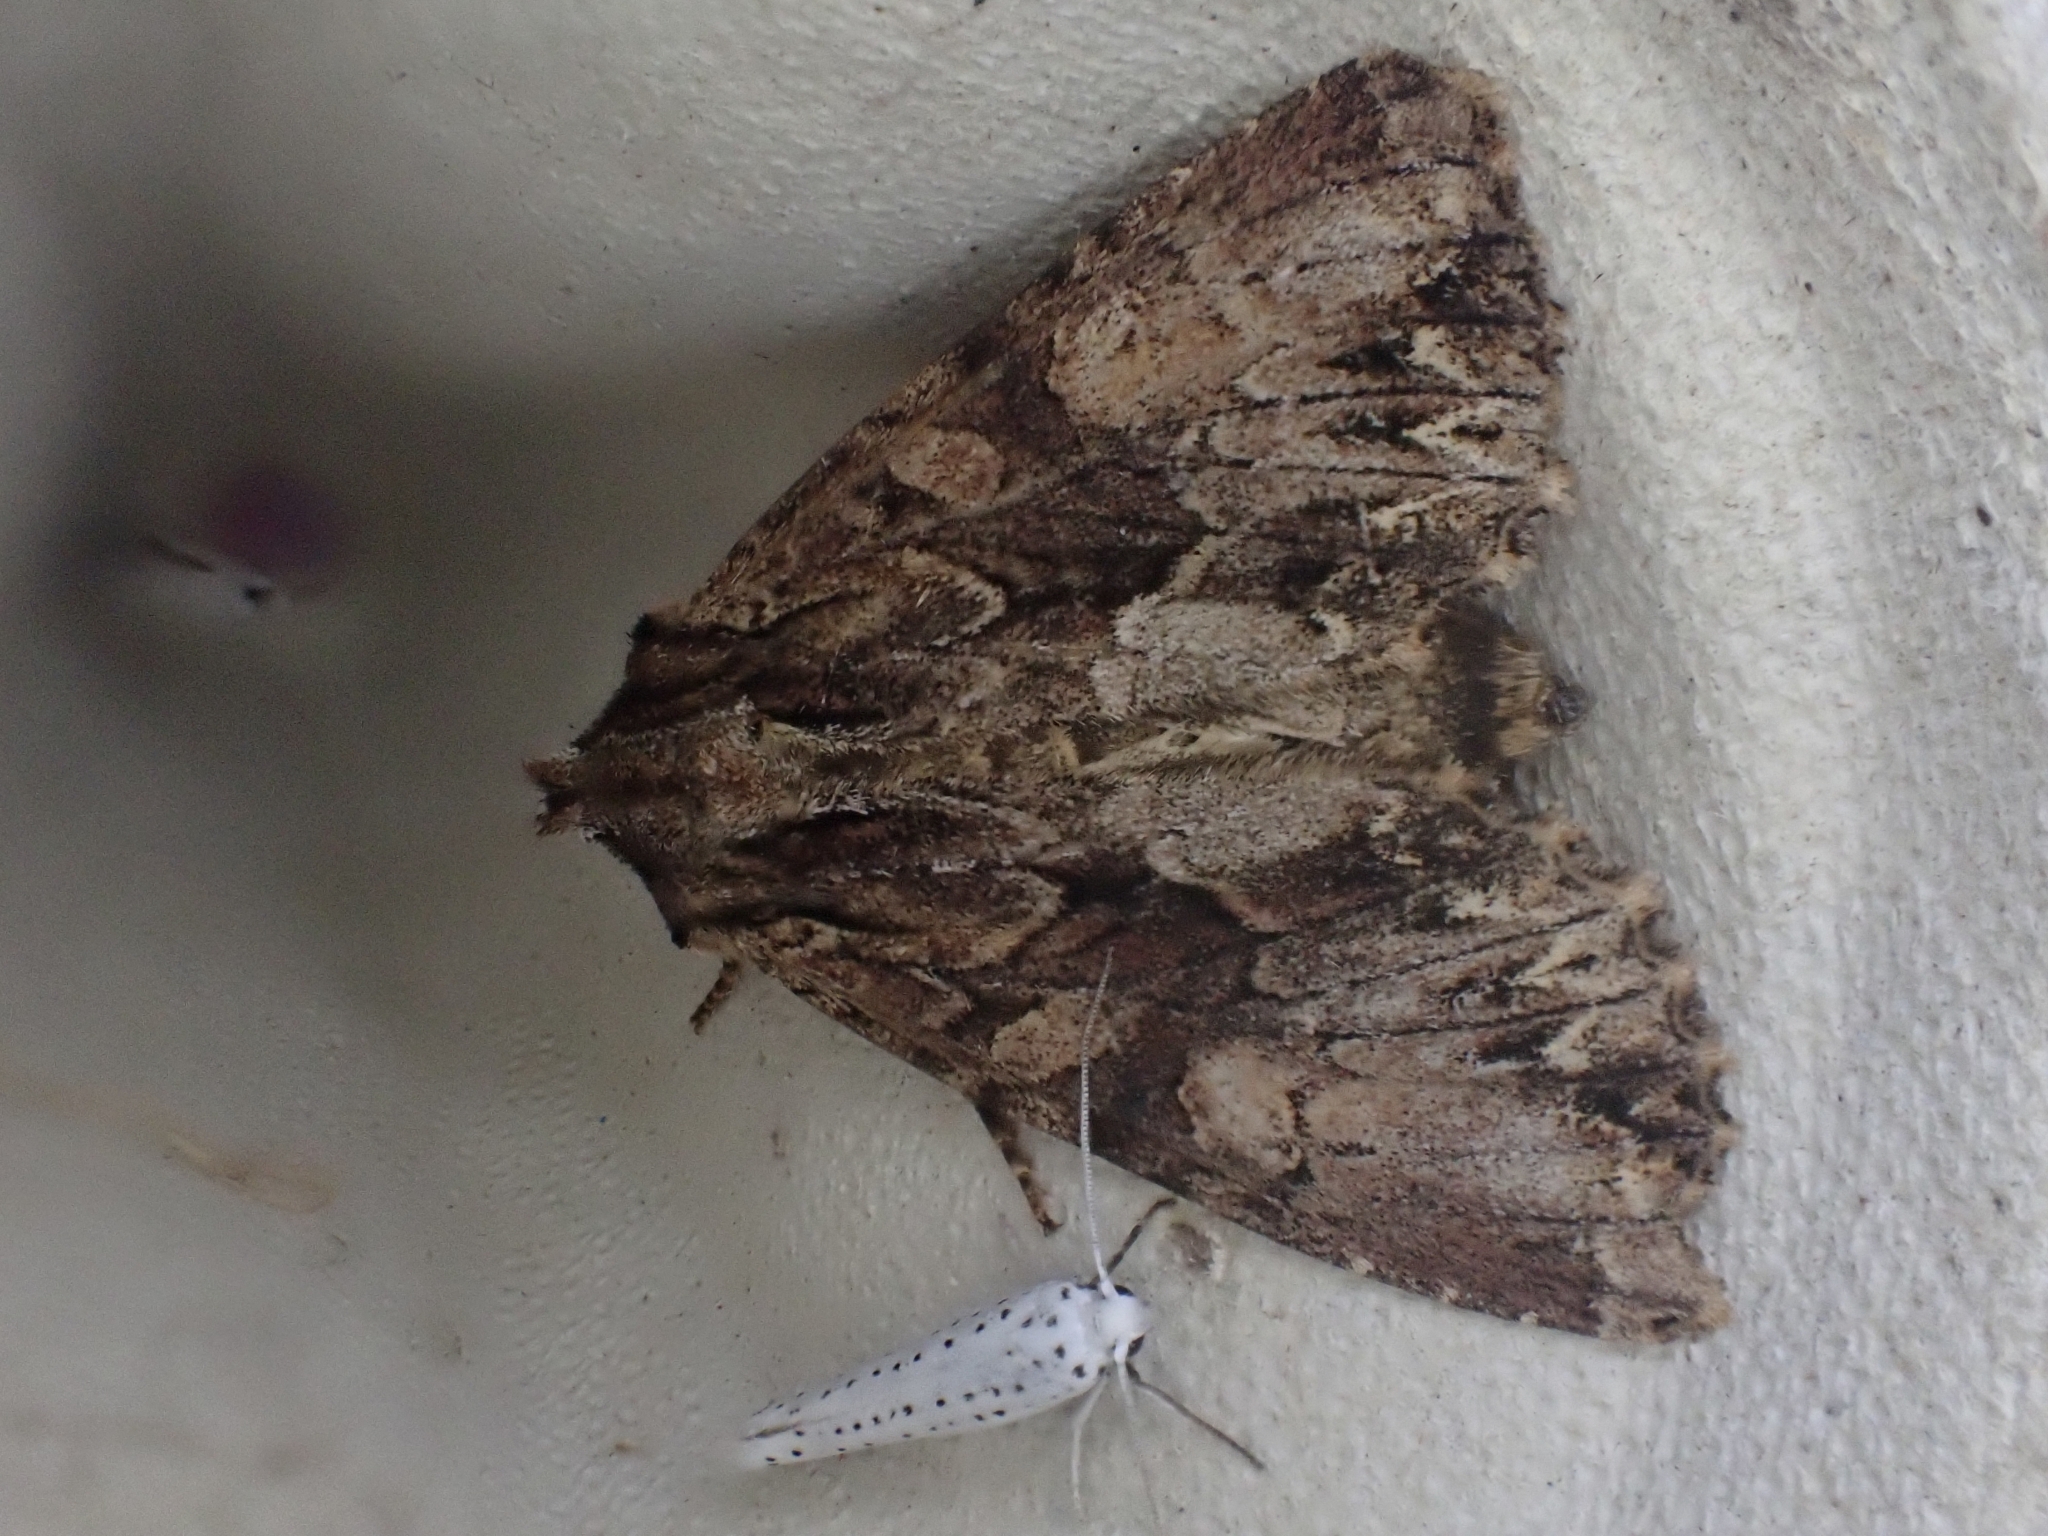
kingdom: Animalia
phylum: Arthropoda
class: Insecta
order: Lepidoptera
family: Noctuidae
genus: Apamea
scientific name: Apamea monoglypha
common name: Dark arches
